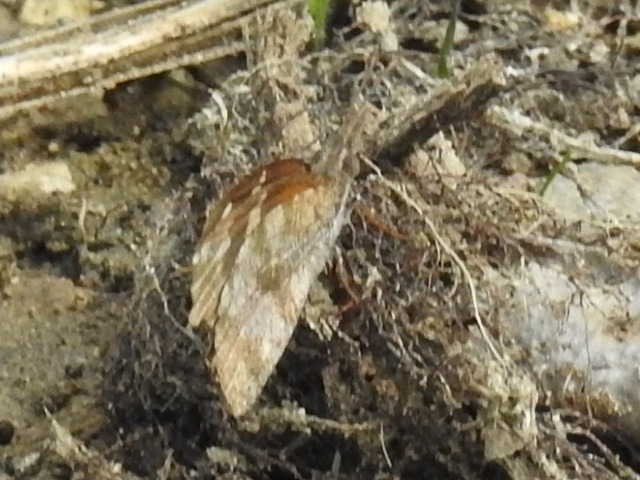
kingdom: Animalia
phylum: Arthropoda
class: Insecta
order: Lepidoptera
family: Nymphalidae
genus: Libytheana
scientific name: Libytheana carinenta
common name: American snout
